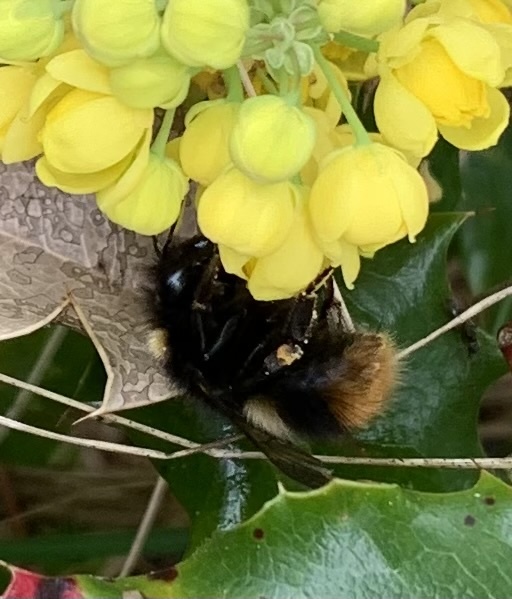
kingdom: Animalia
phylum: Arthropoda
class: Insecta
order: Hymenoptera
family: Apidae
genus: Bombus
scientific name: Bombus pratorum
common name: Early humble-bee
